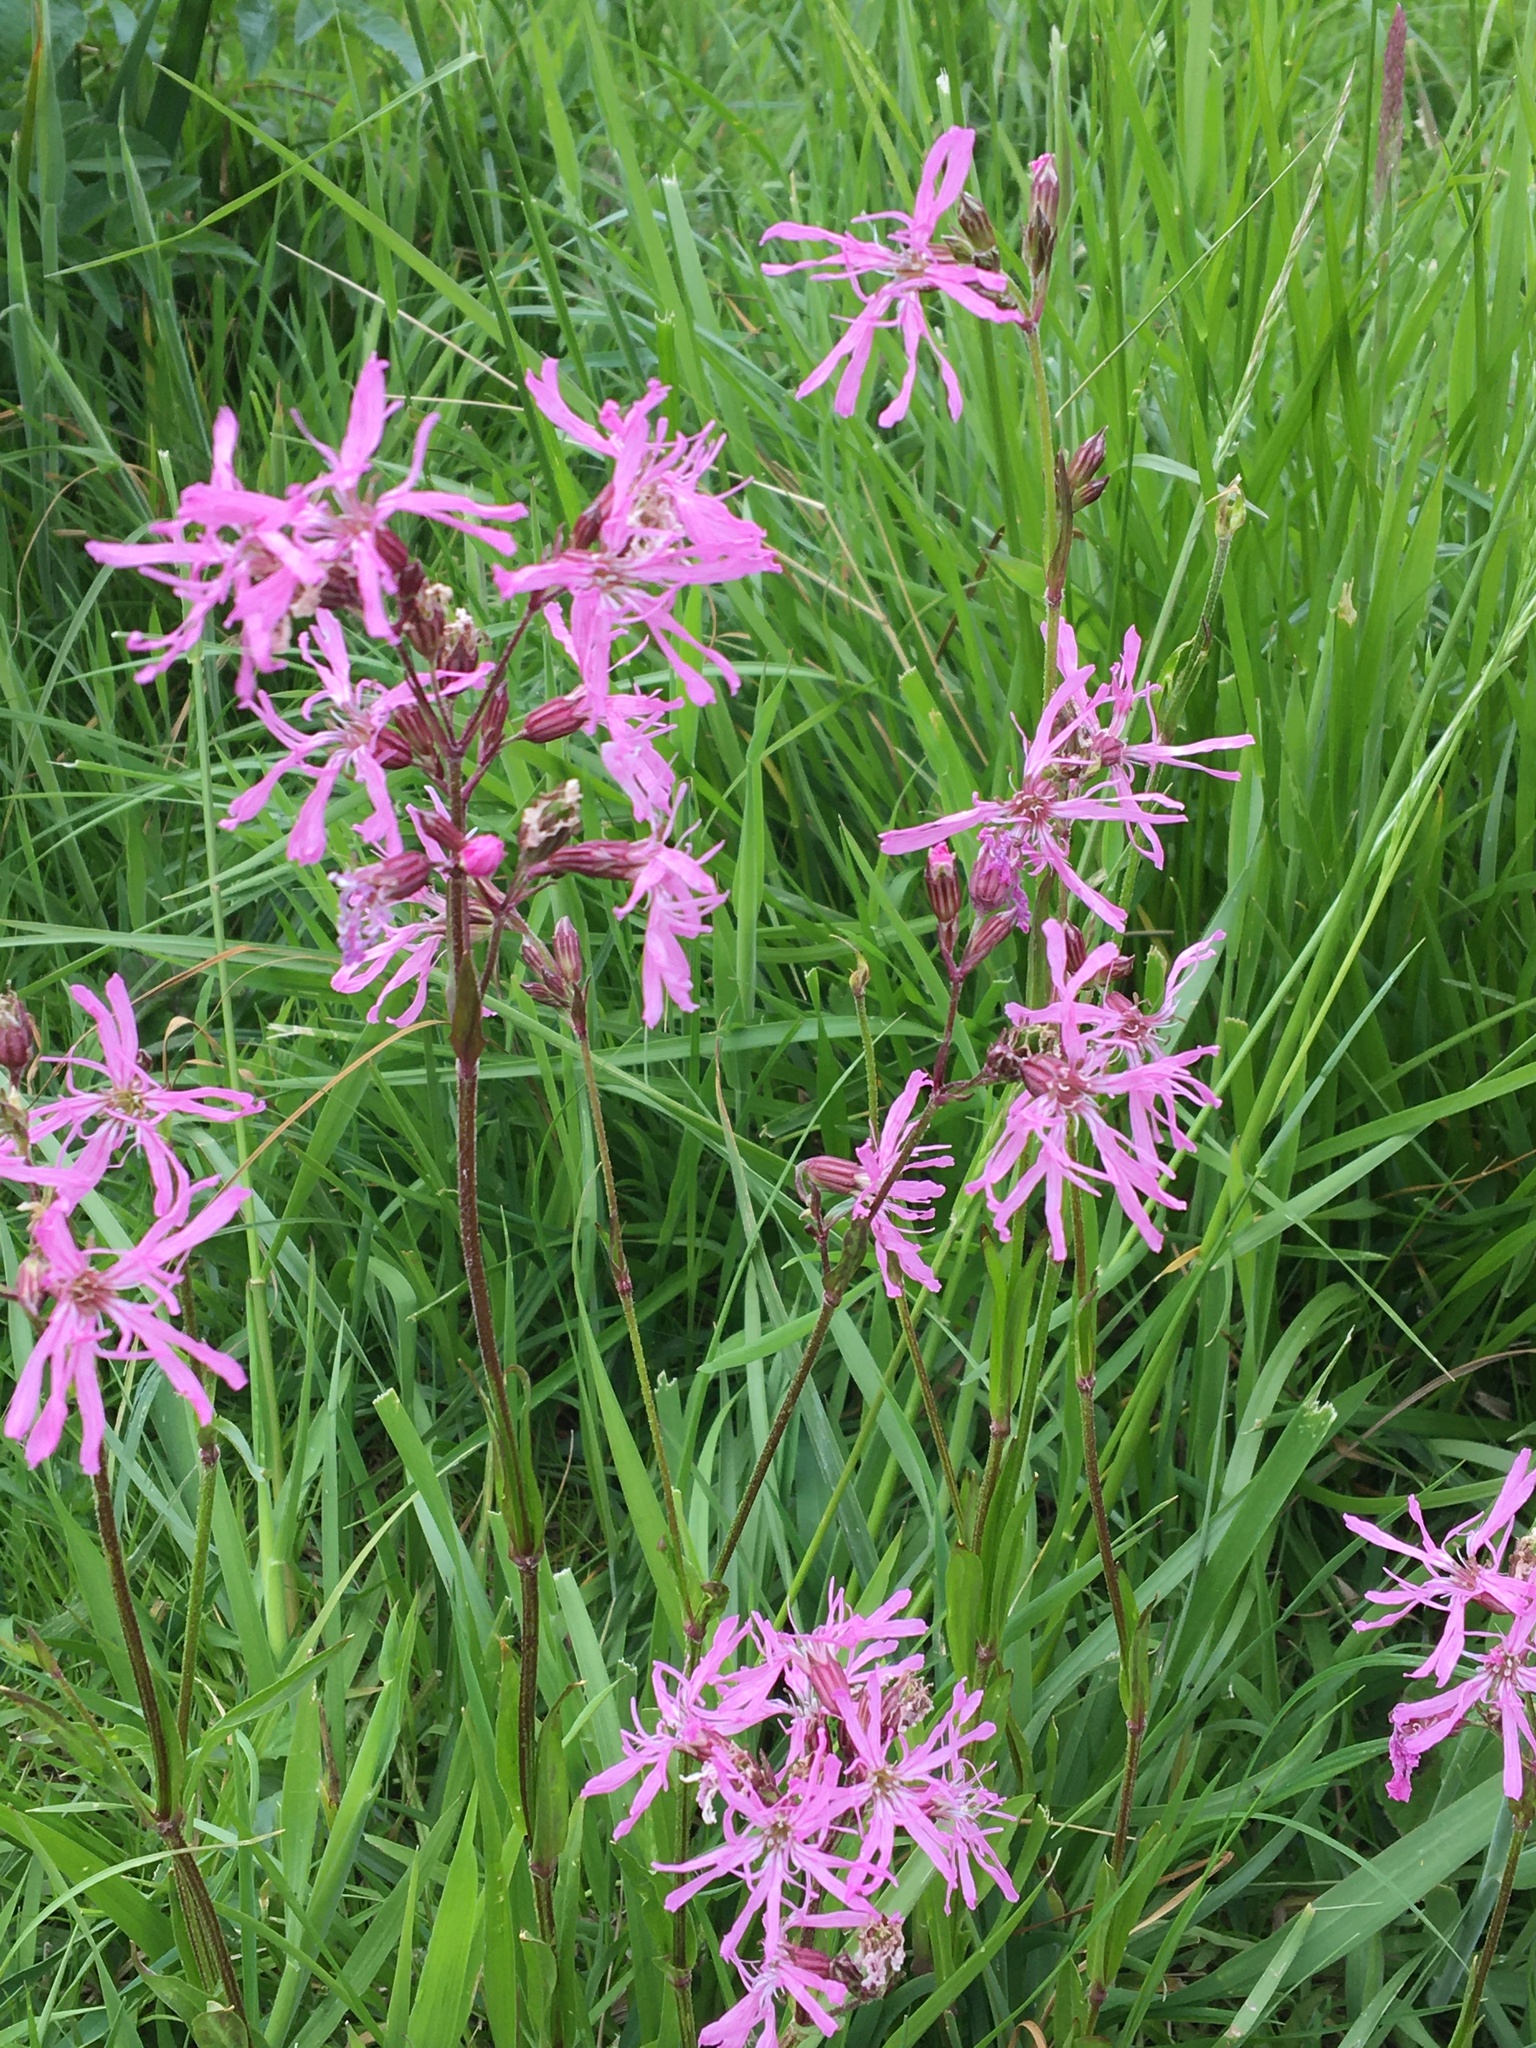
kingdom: Plantae
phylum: Tracheophyta
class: Magnoliopsida
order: Caryophyllales
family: Caryophyllaceae
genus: Silene
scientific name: Silene flos-cuculi
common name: Ragged-robin
